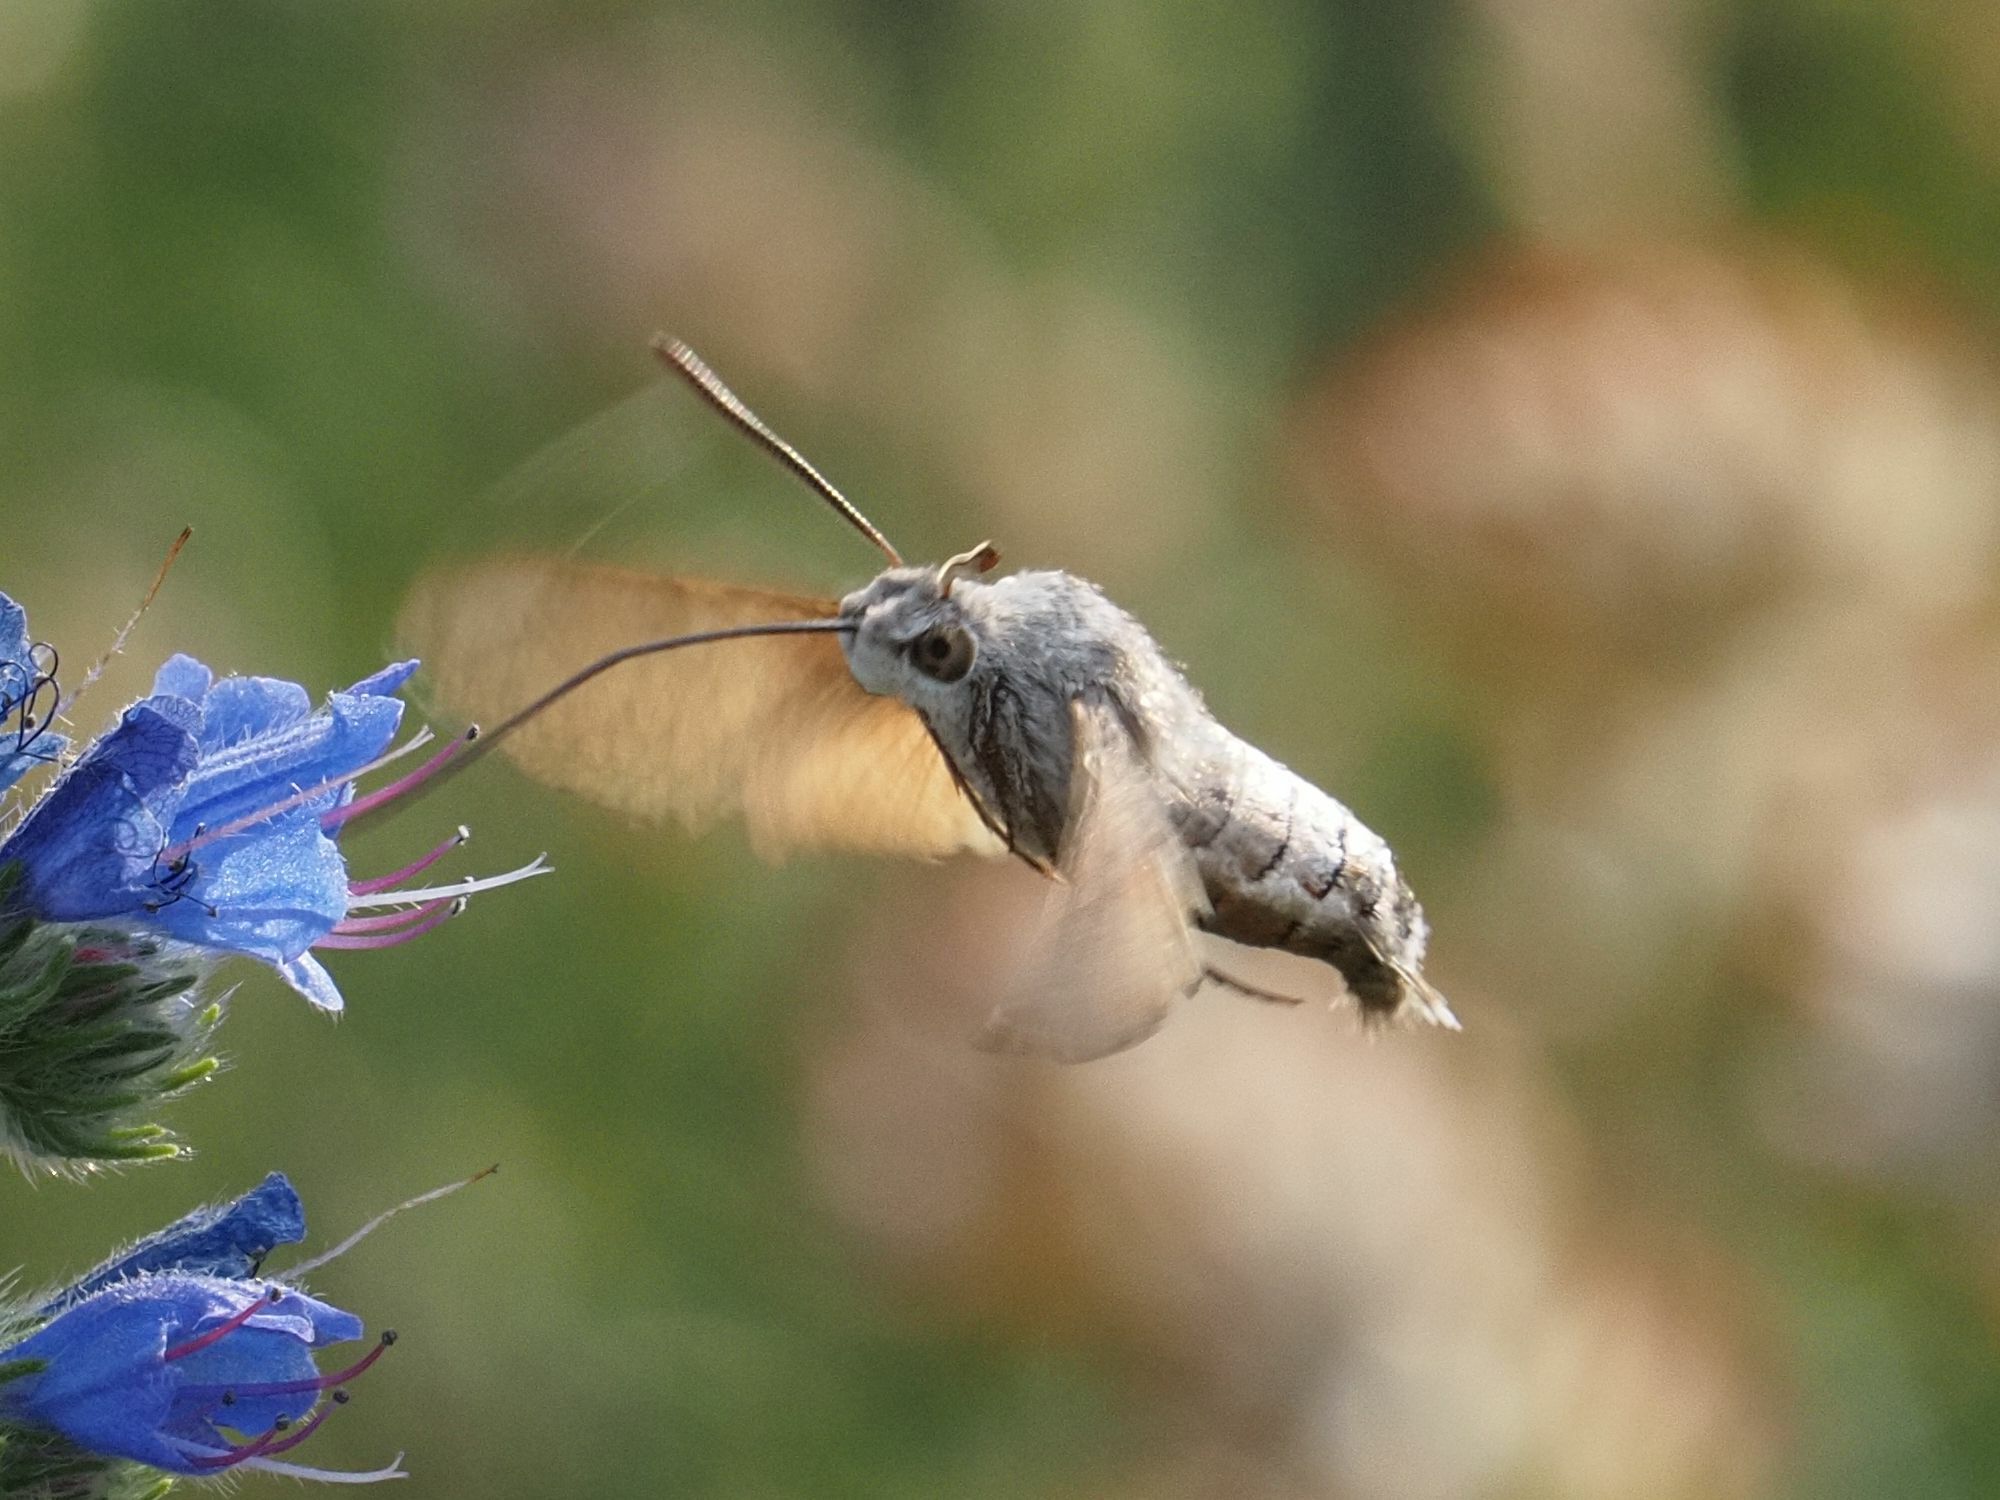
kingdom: Animalia
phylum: Arthropoda
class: Insecta
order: Lepidoptera
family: Sphingidae
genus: Macroglossum
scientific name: Macroglossum stellatarum
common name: Humming-bird hawk-moth
